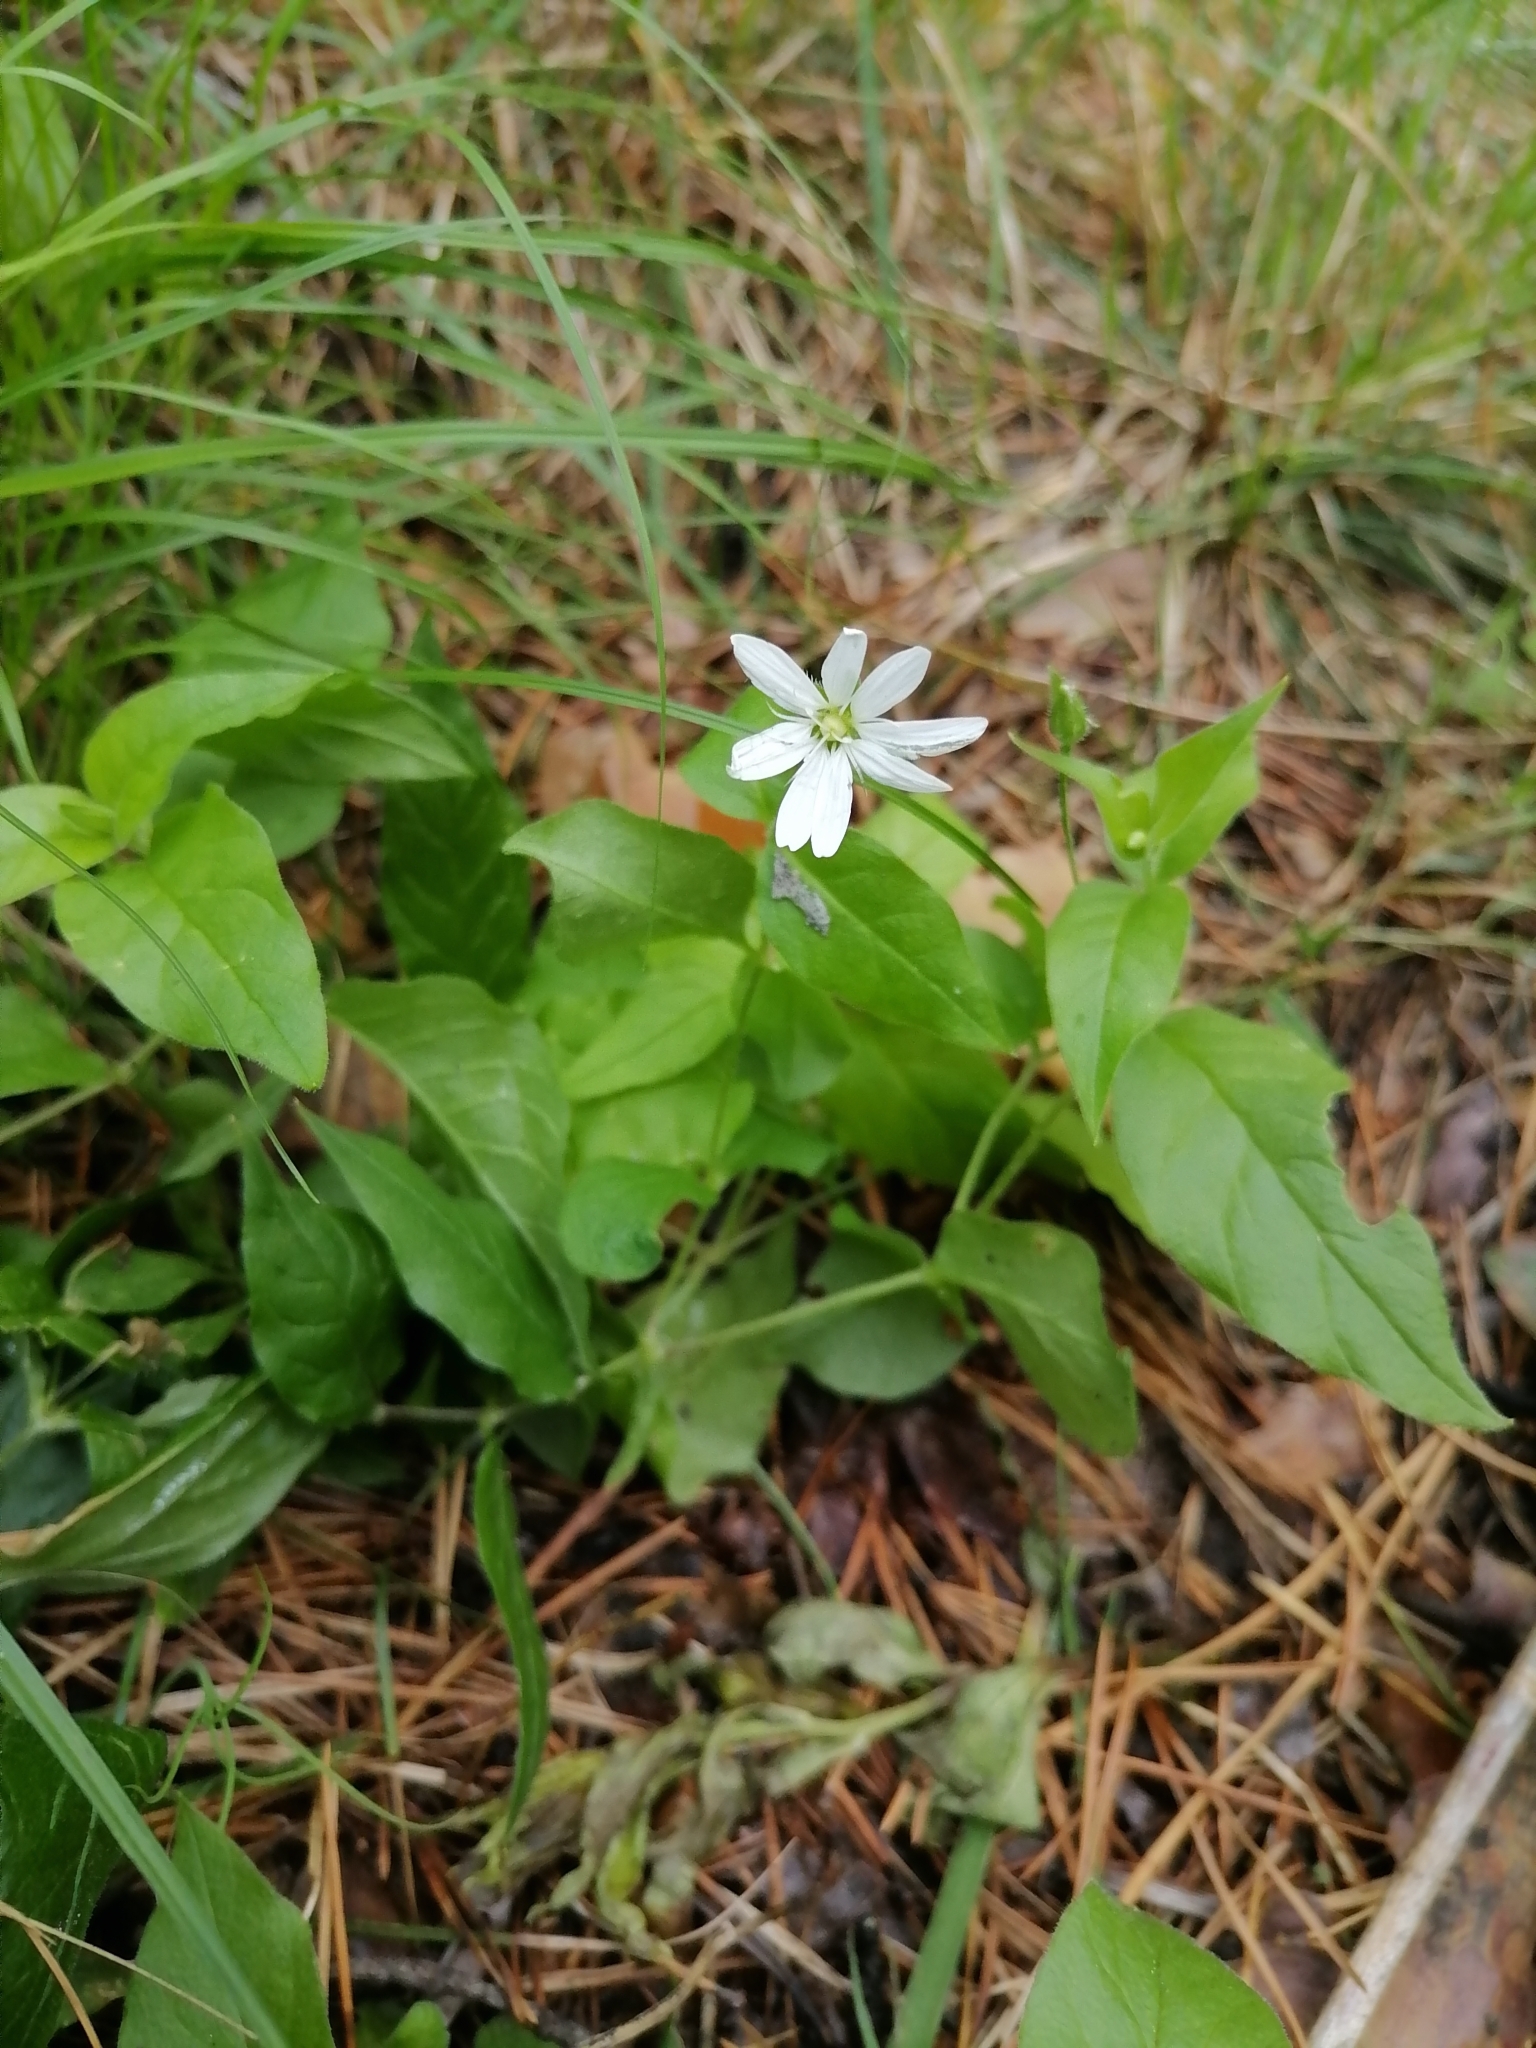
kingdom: Plantae
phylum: Tracheophyta
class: Magnoliopsida
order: Caryophyllales
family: Caryophyllaceae
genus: Stellaria
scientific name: Stellaria bungeana
